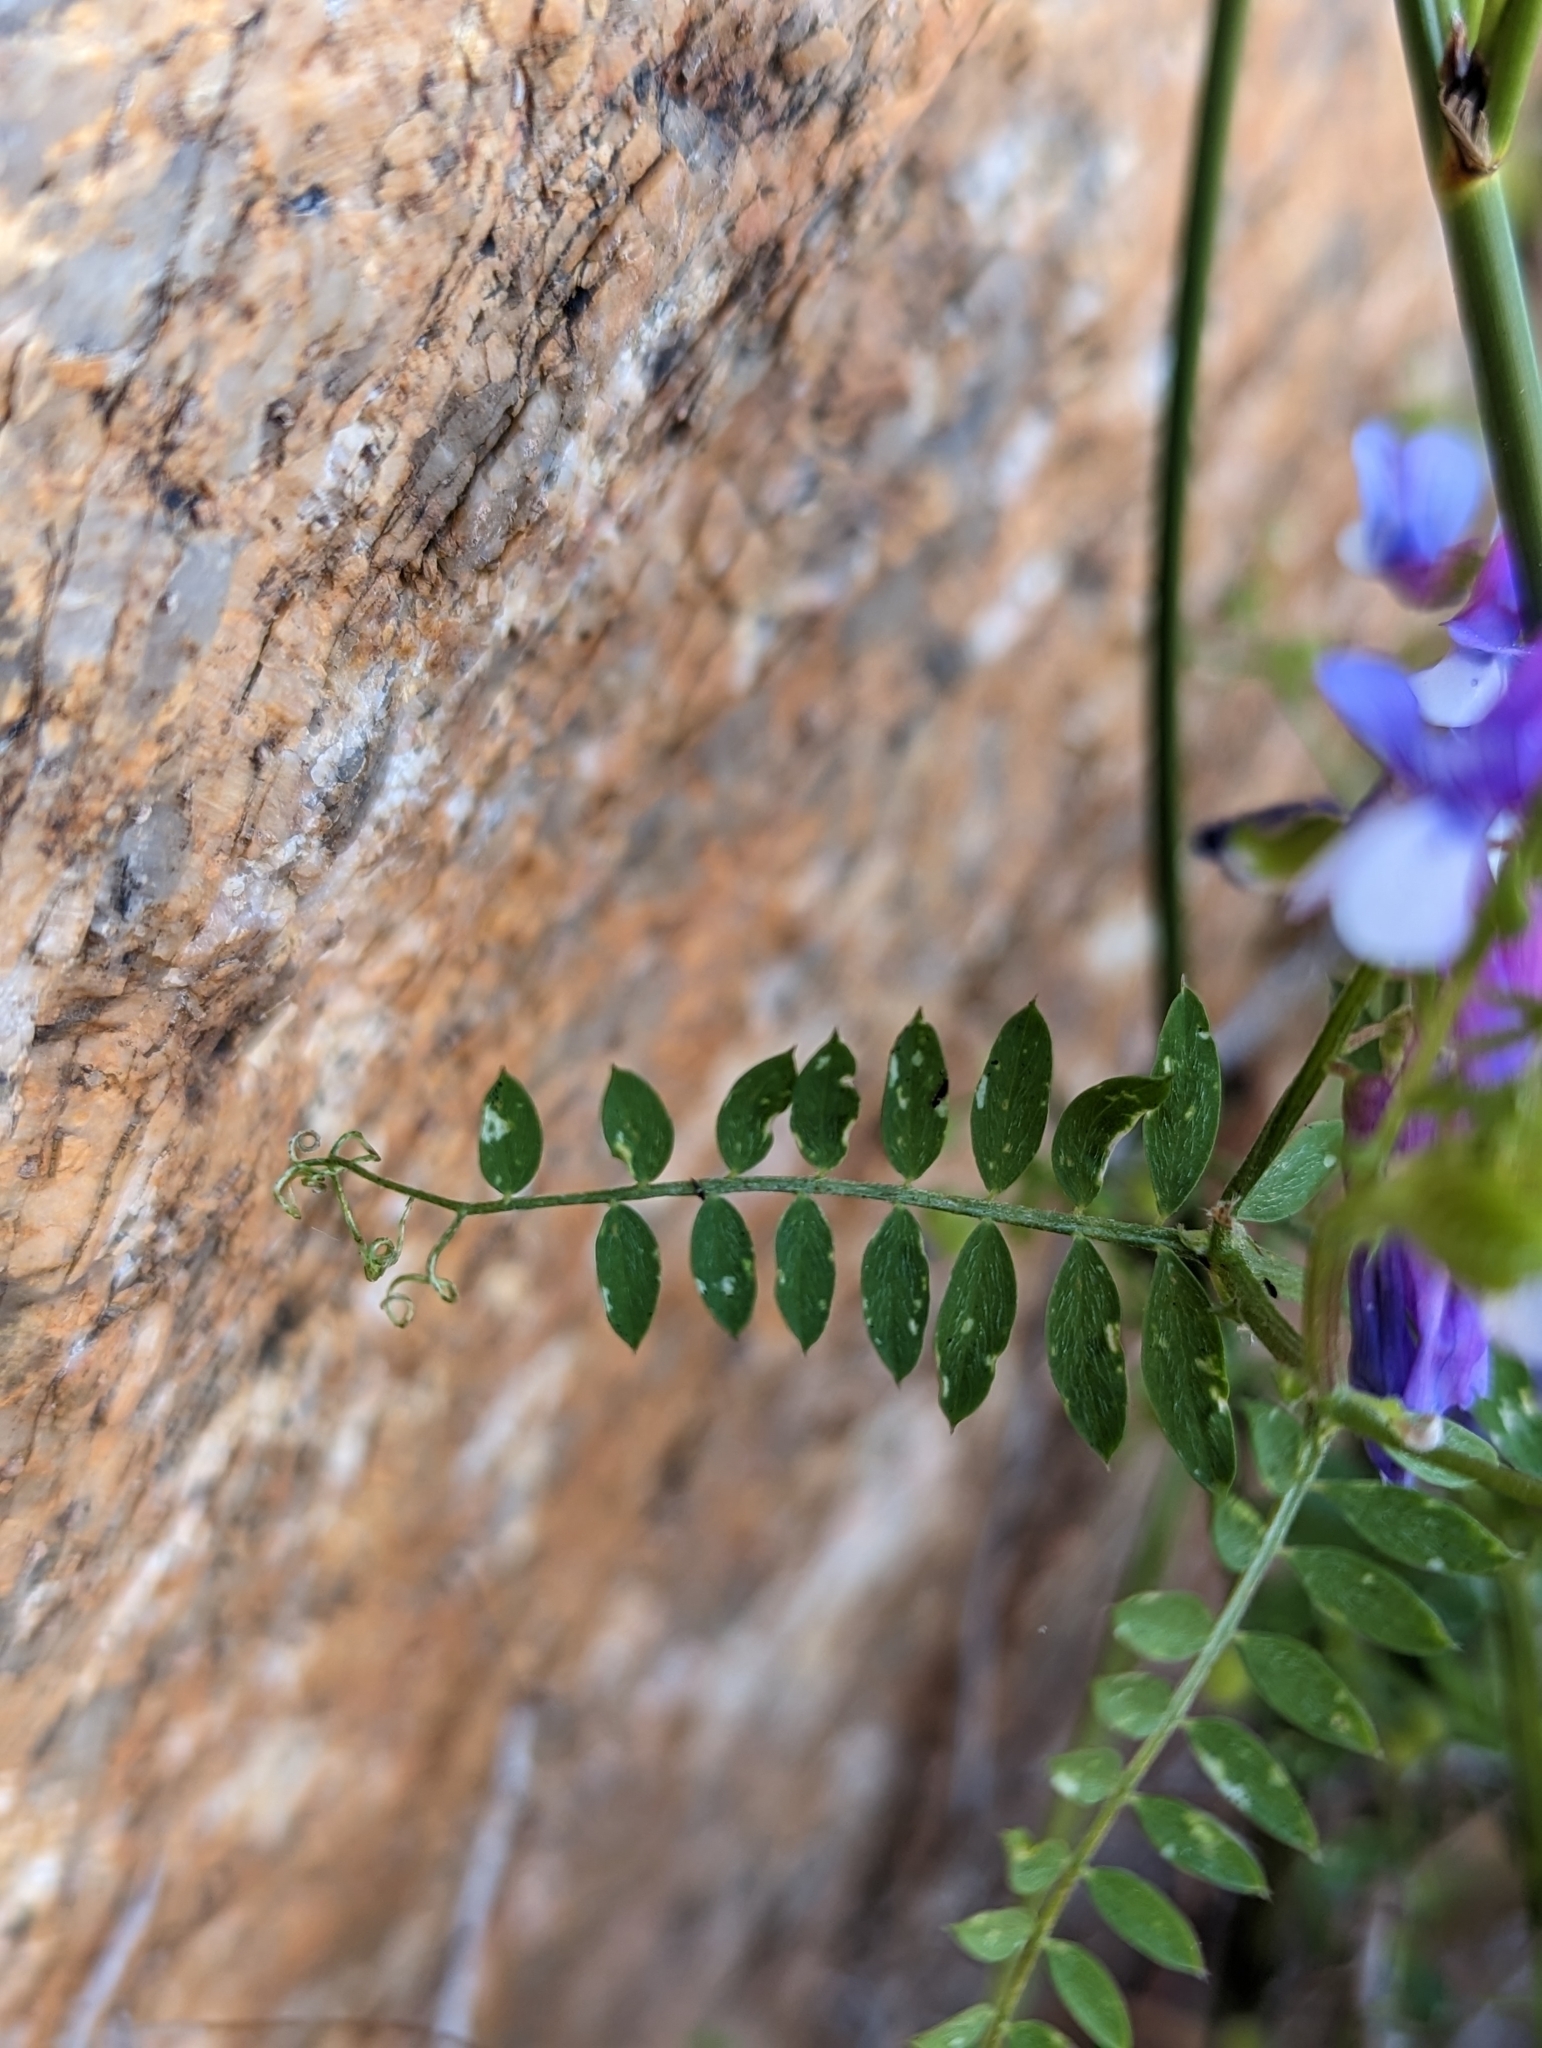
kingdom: Plantae
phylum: Tracheophyta
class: Magnoliopsida
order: Fabales
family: Fabaceae
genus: Vicia
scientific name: Vicia villosa
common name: Fodder vetch
